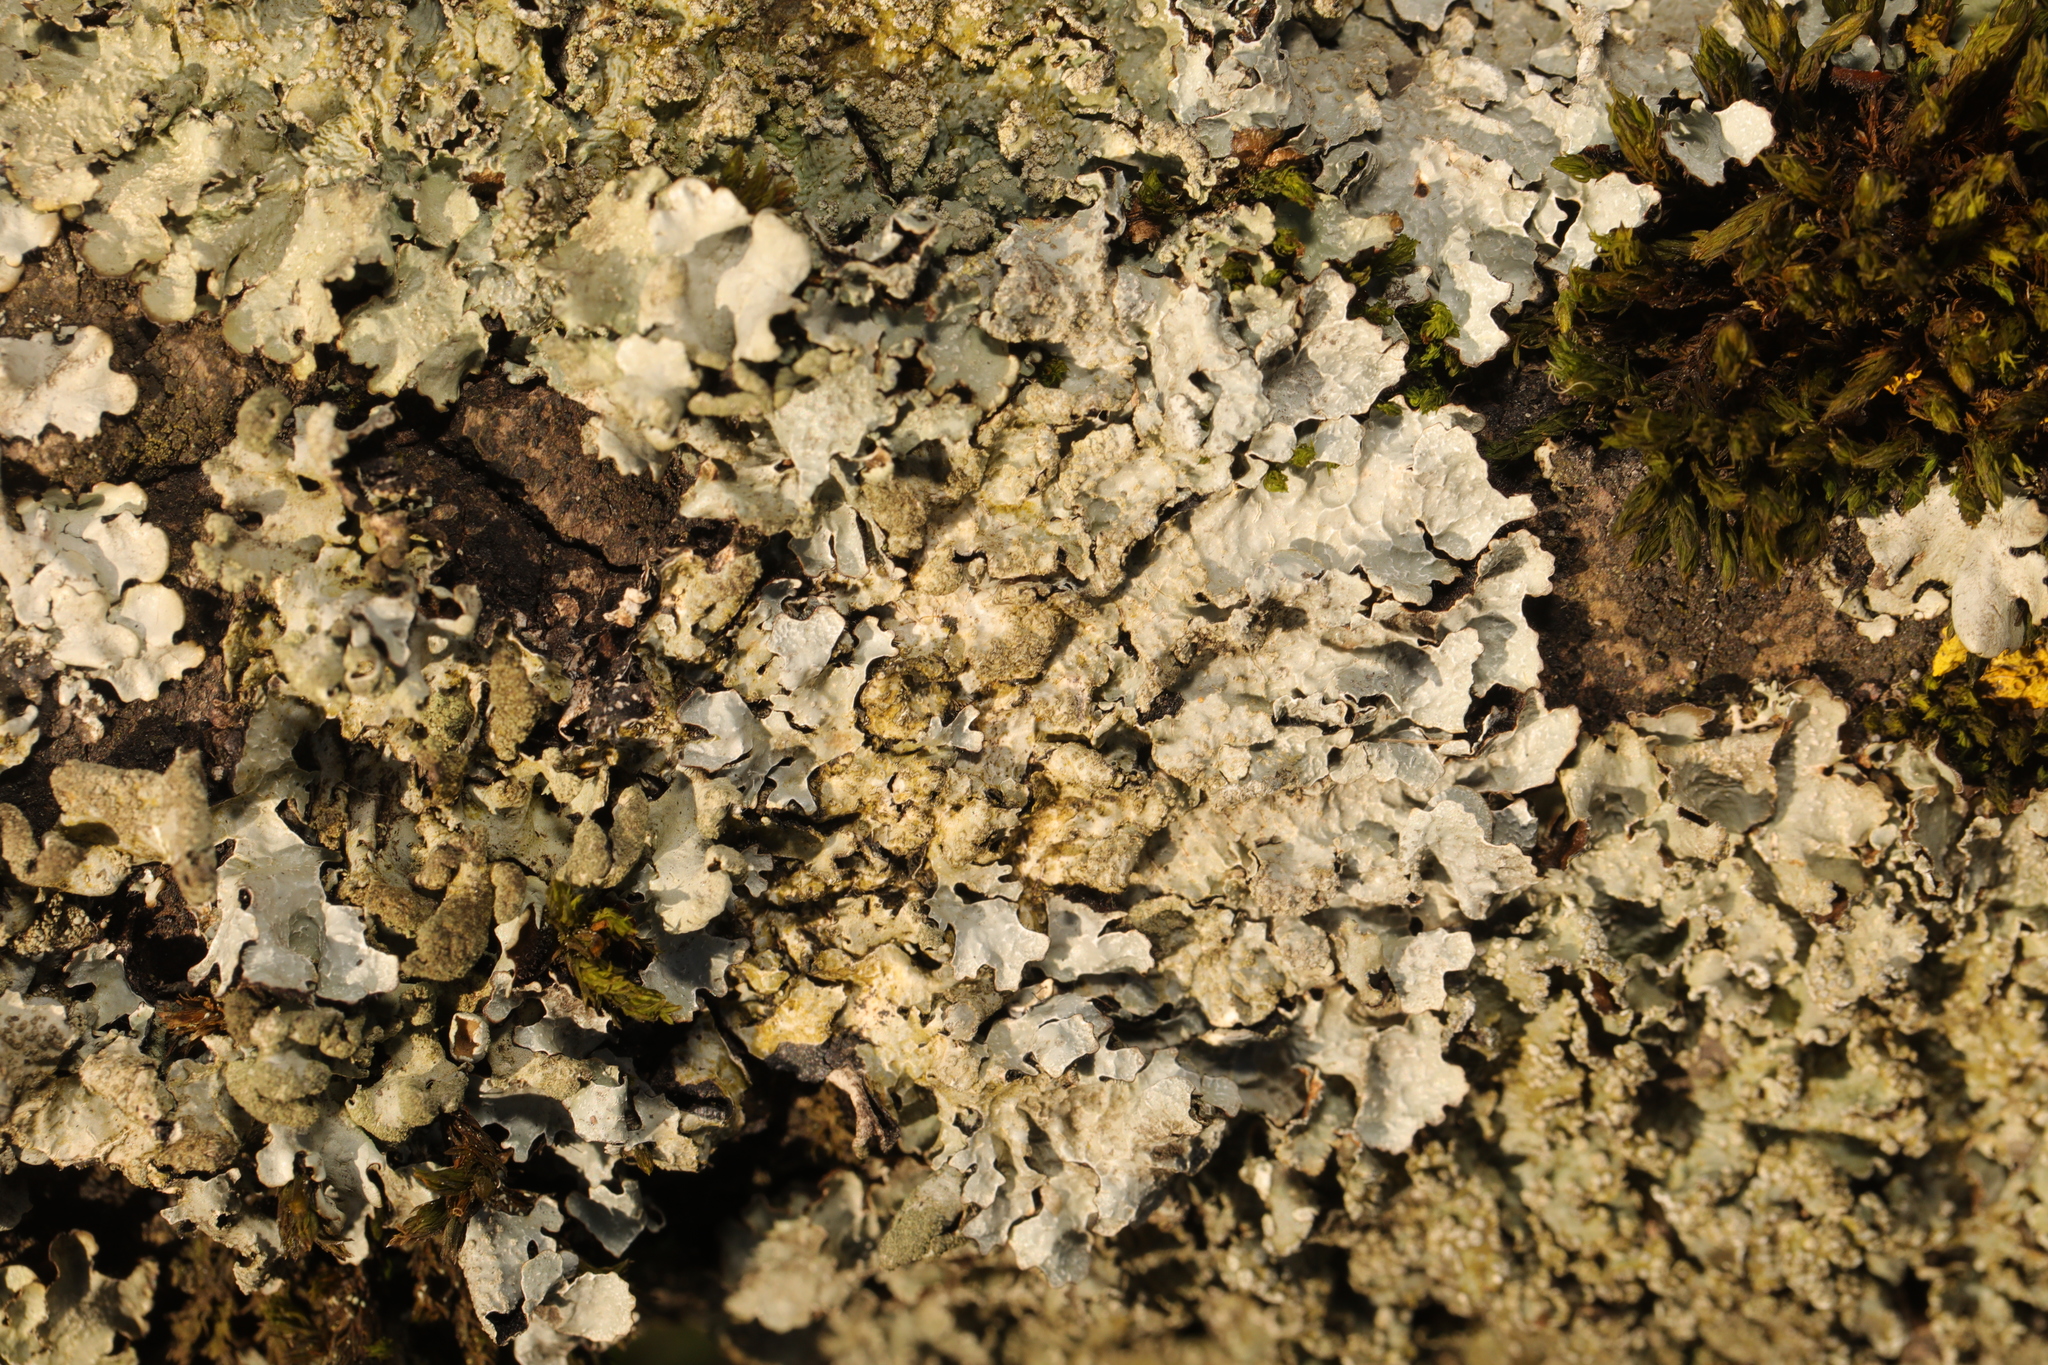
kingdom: Fungi
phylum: Ascomycota
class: Lecanoromycetes
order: Lecanorales
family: Parmeliaceae
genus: Parmelia
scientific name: Parmelia sulcata
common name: Netted shield lichen
